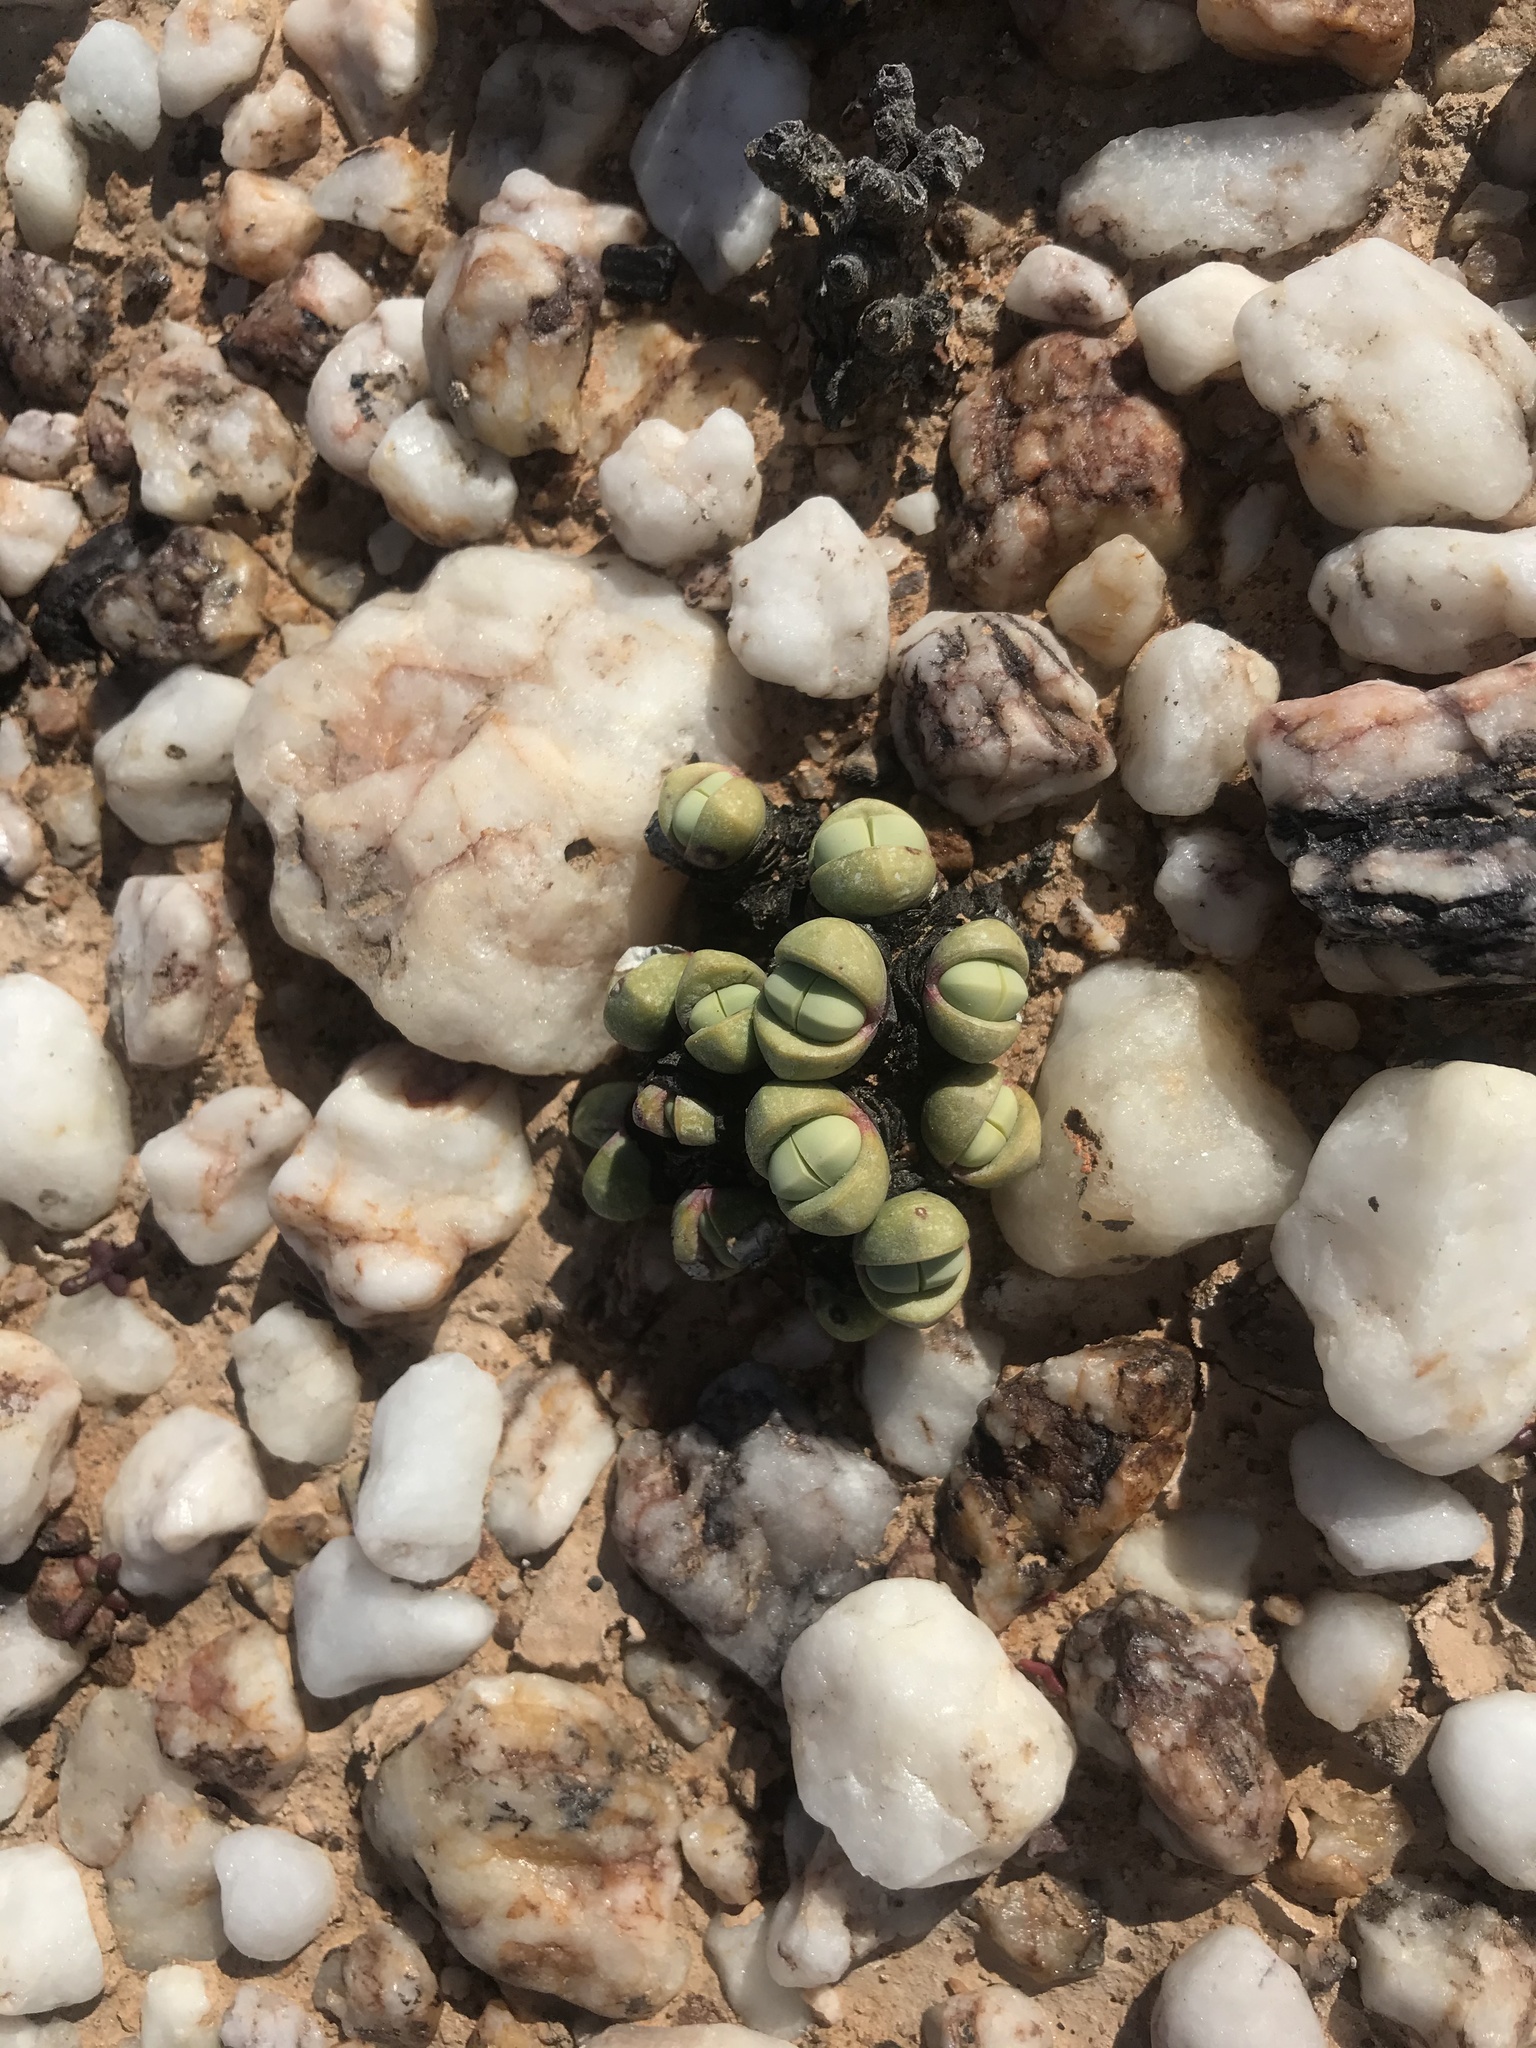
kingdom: Plantae
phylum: Tracheophyta
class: Magnoliopsida
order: Caryophyllales
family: Aizoaceae
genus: Argyroderma
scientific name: Argyroderma subalbum
